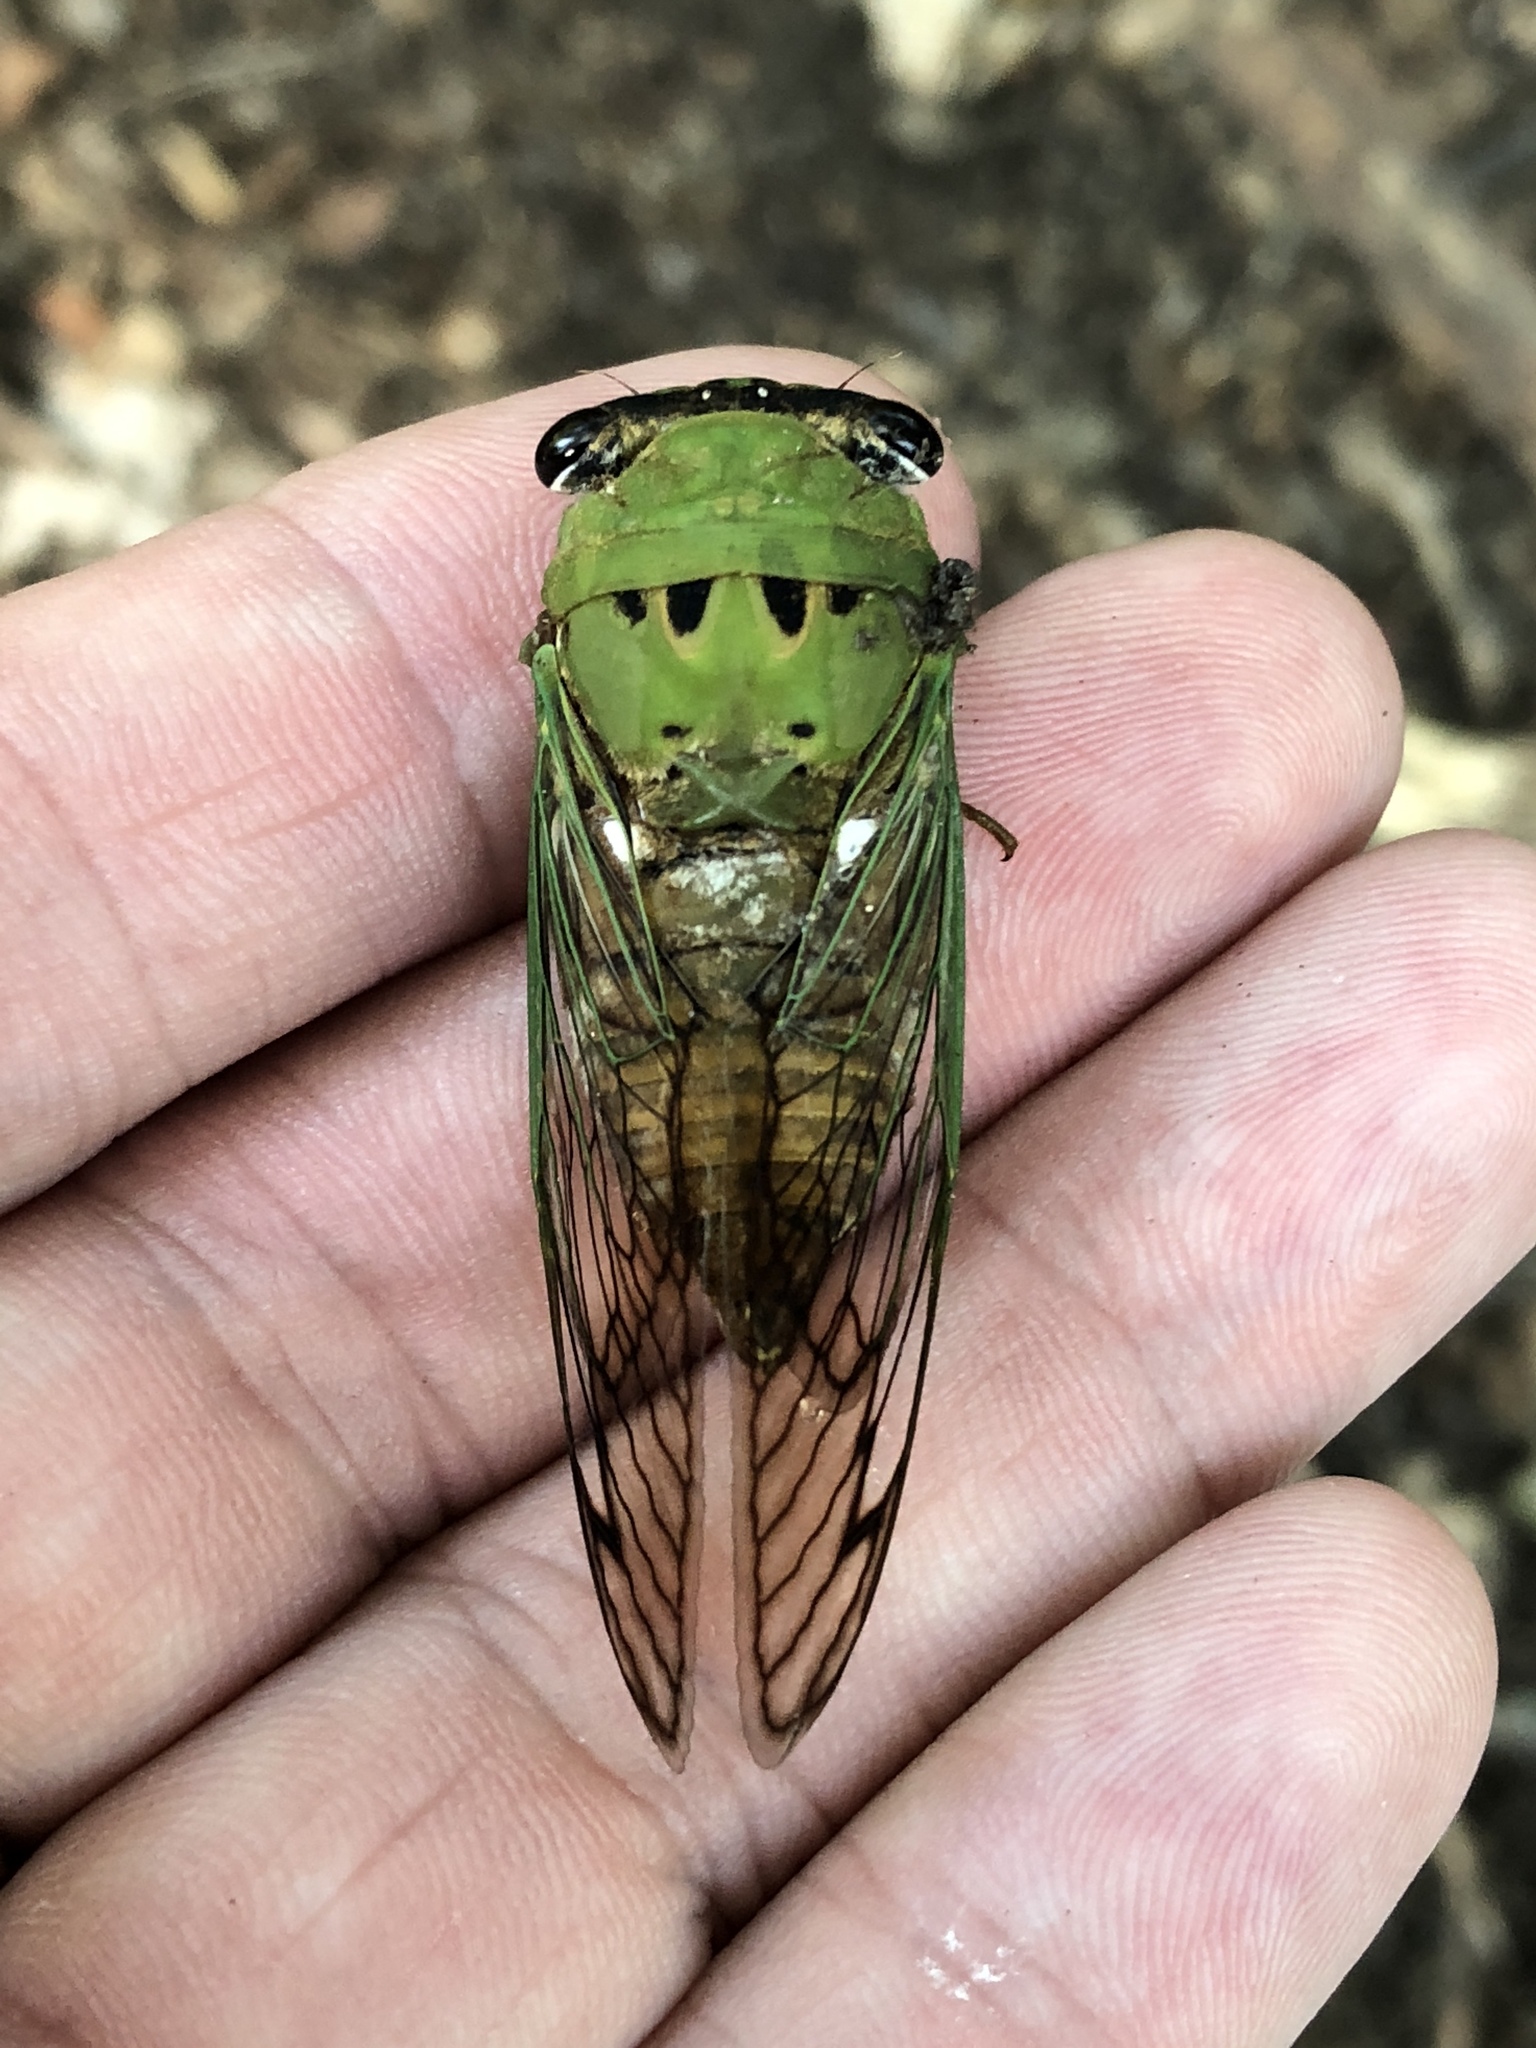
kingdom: Animalia
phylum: Arthropoda
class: Insecta
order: Hemiptera
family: Cicadidae
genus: Neotibicen
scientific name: Neotibicen superbus
